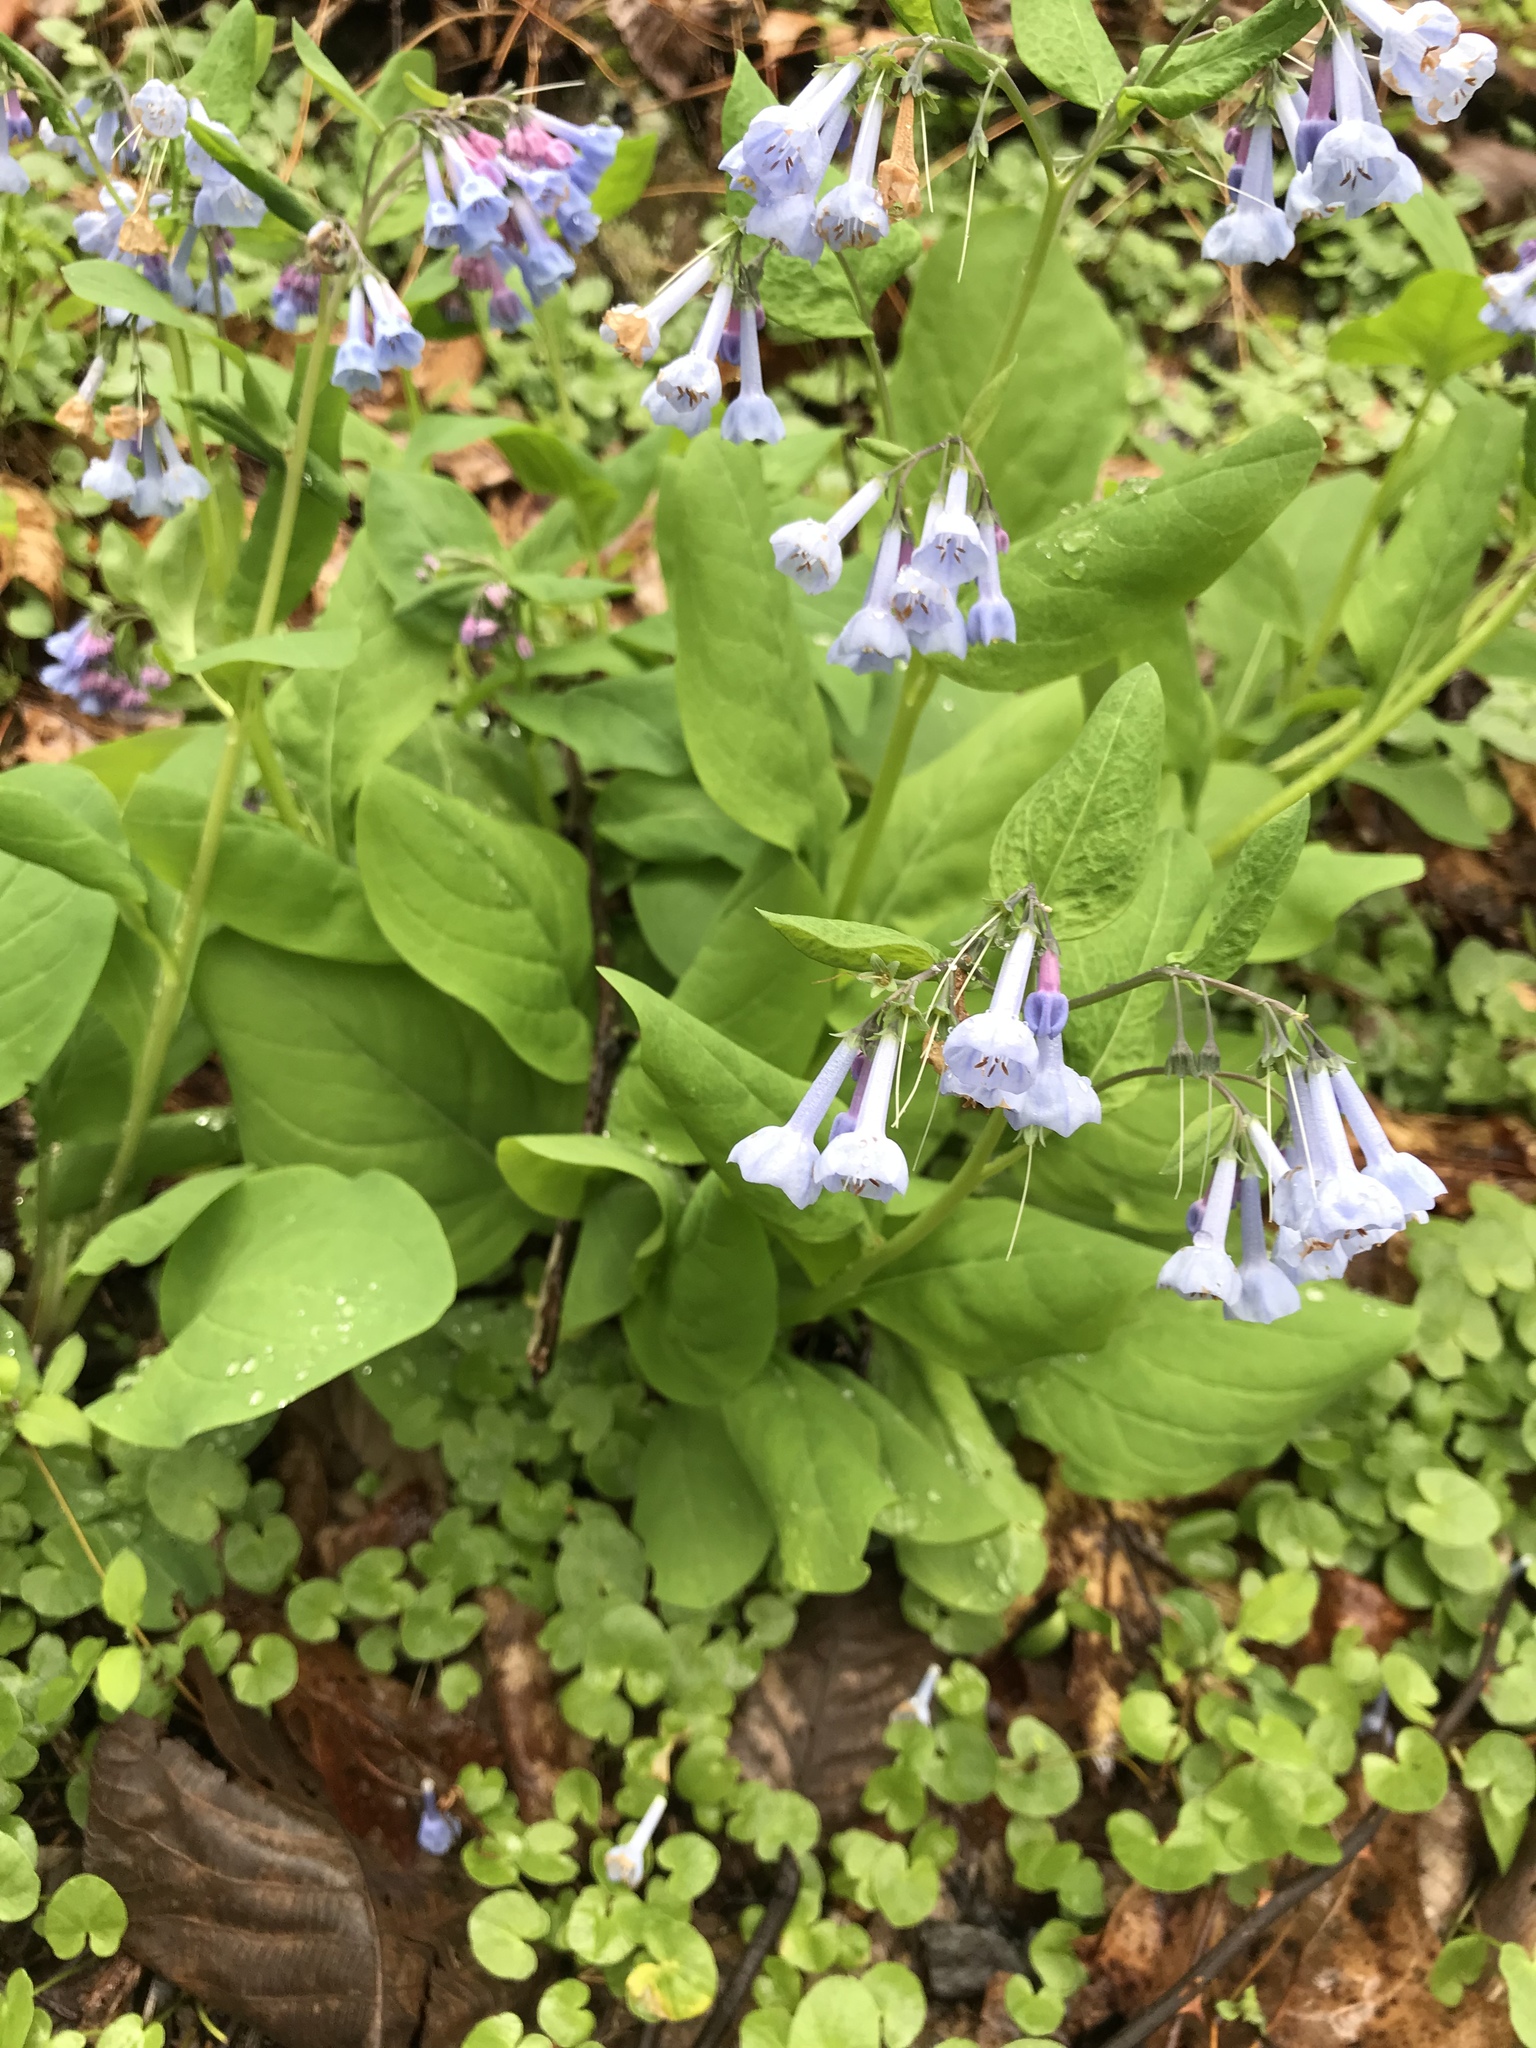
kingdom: Plantae
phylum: Tracheophyta
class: Magnoliopsida
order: Boraginales
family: Boraginaceae
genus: Mertensia
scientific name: Mertensia virginica
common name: Virginia bluebells
